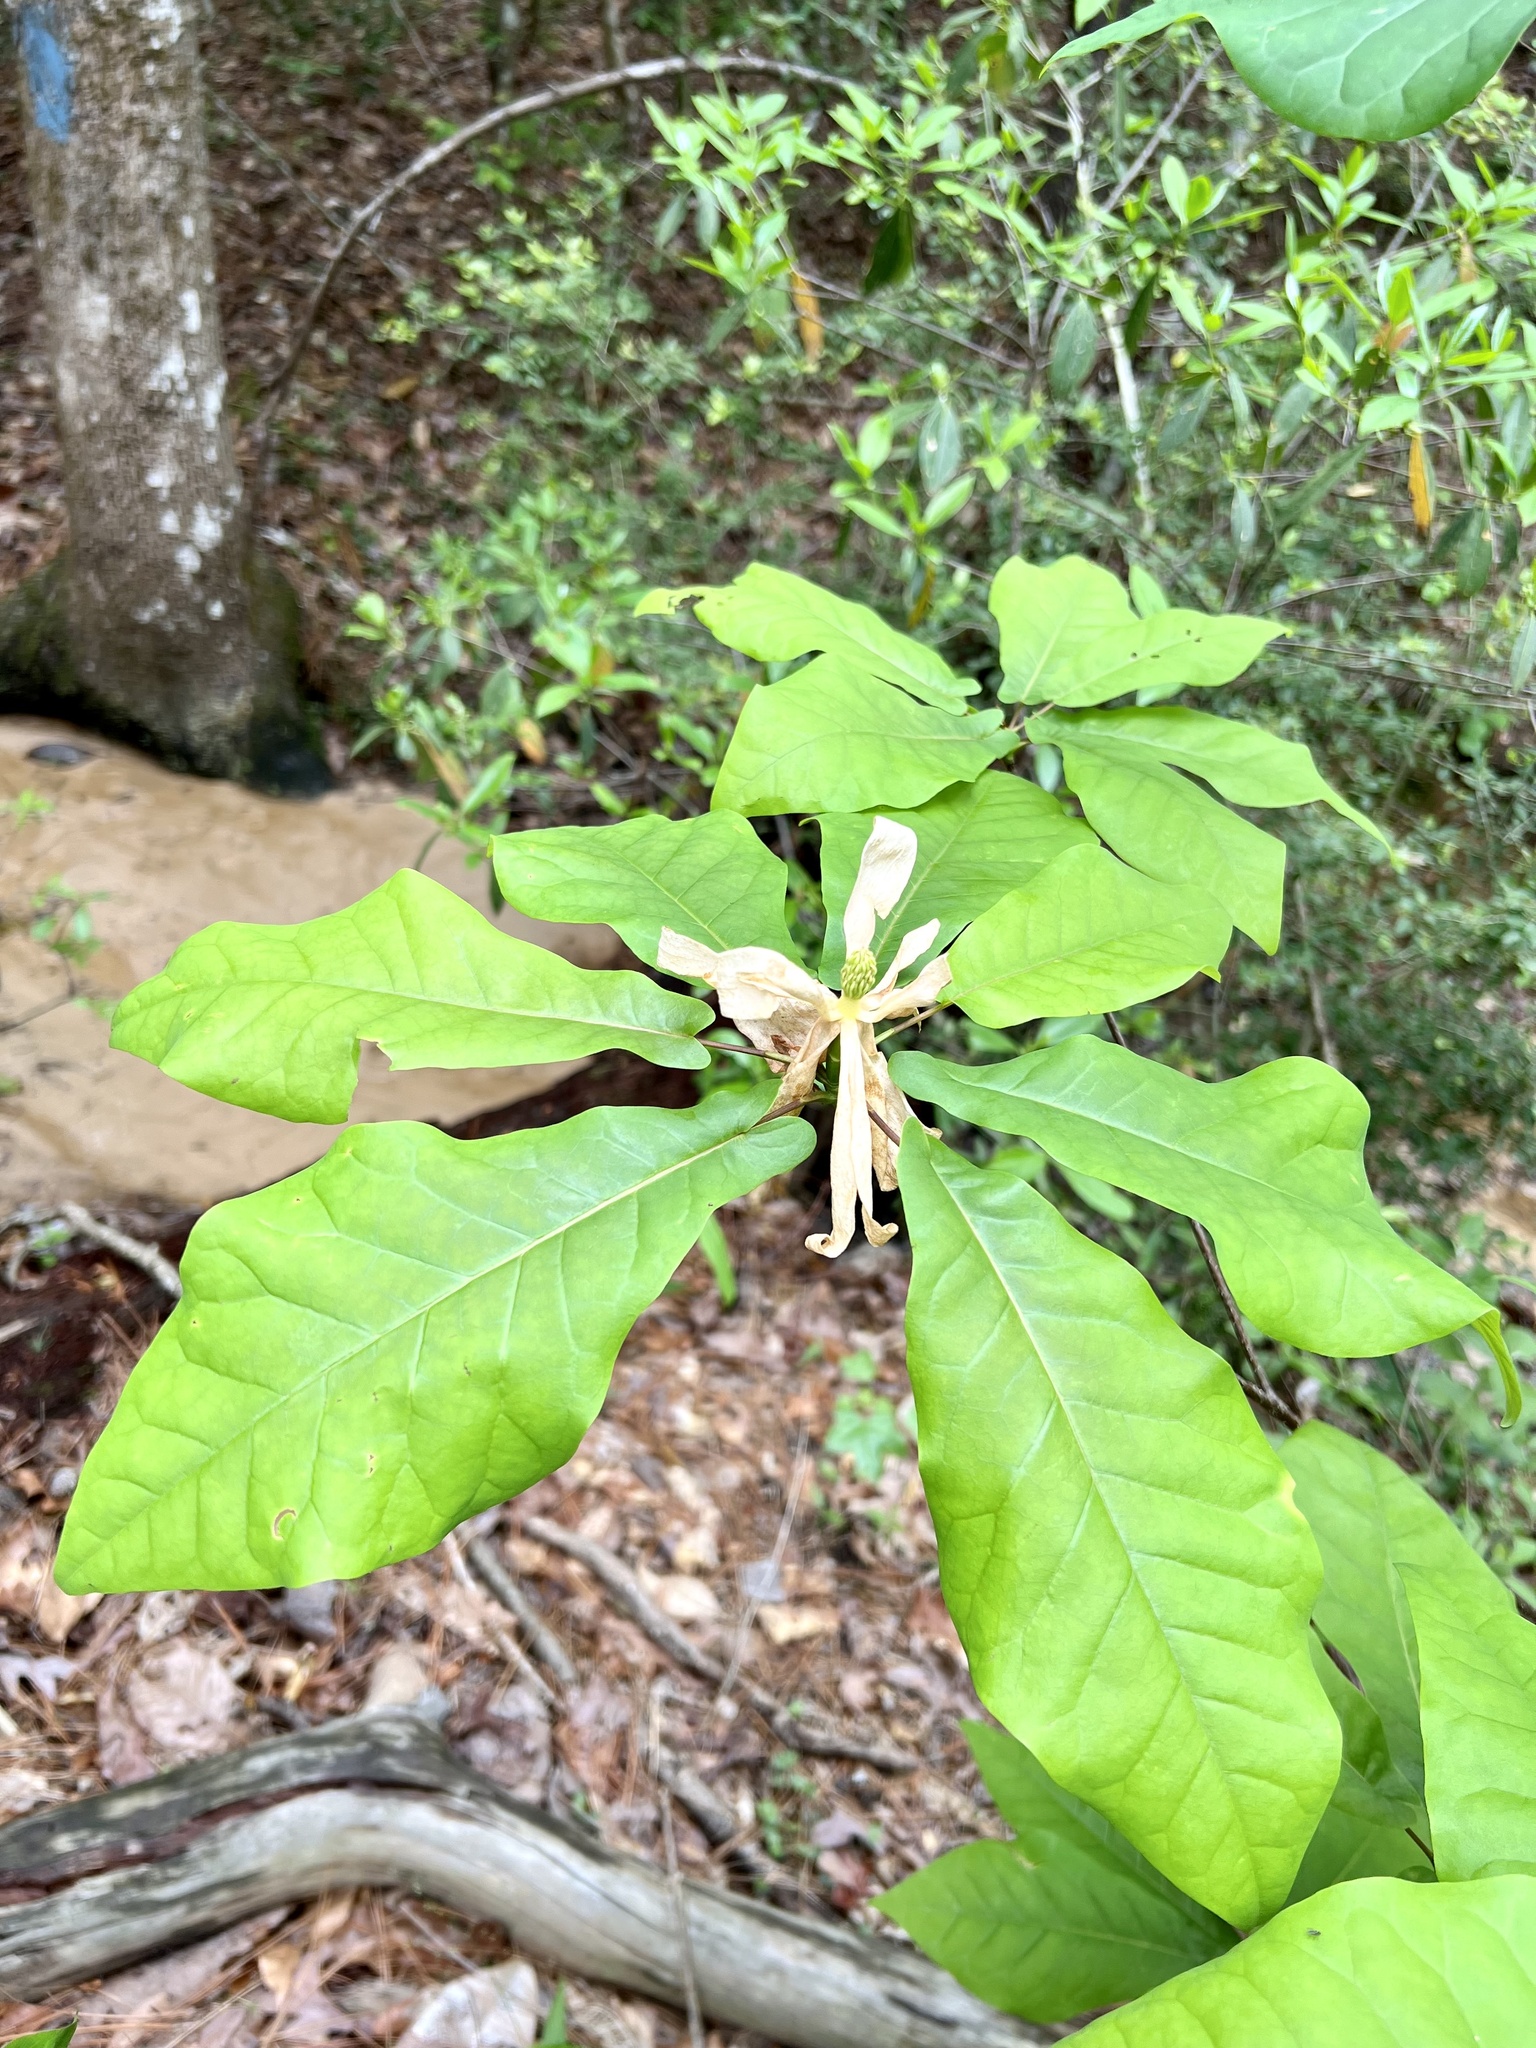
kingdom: Plantae
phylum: Tracheophyta
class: Magnoliopsida
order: Magnoliales
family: Magnoliaceae
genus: Magnolia
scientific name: Magnolia fraseri
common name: Fraser's magnolia
